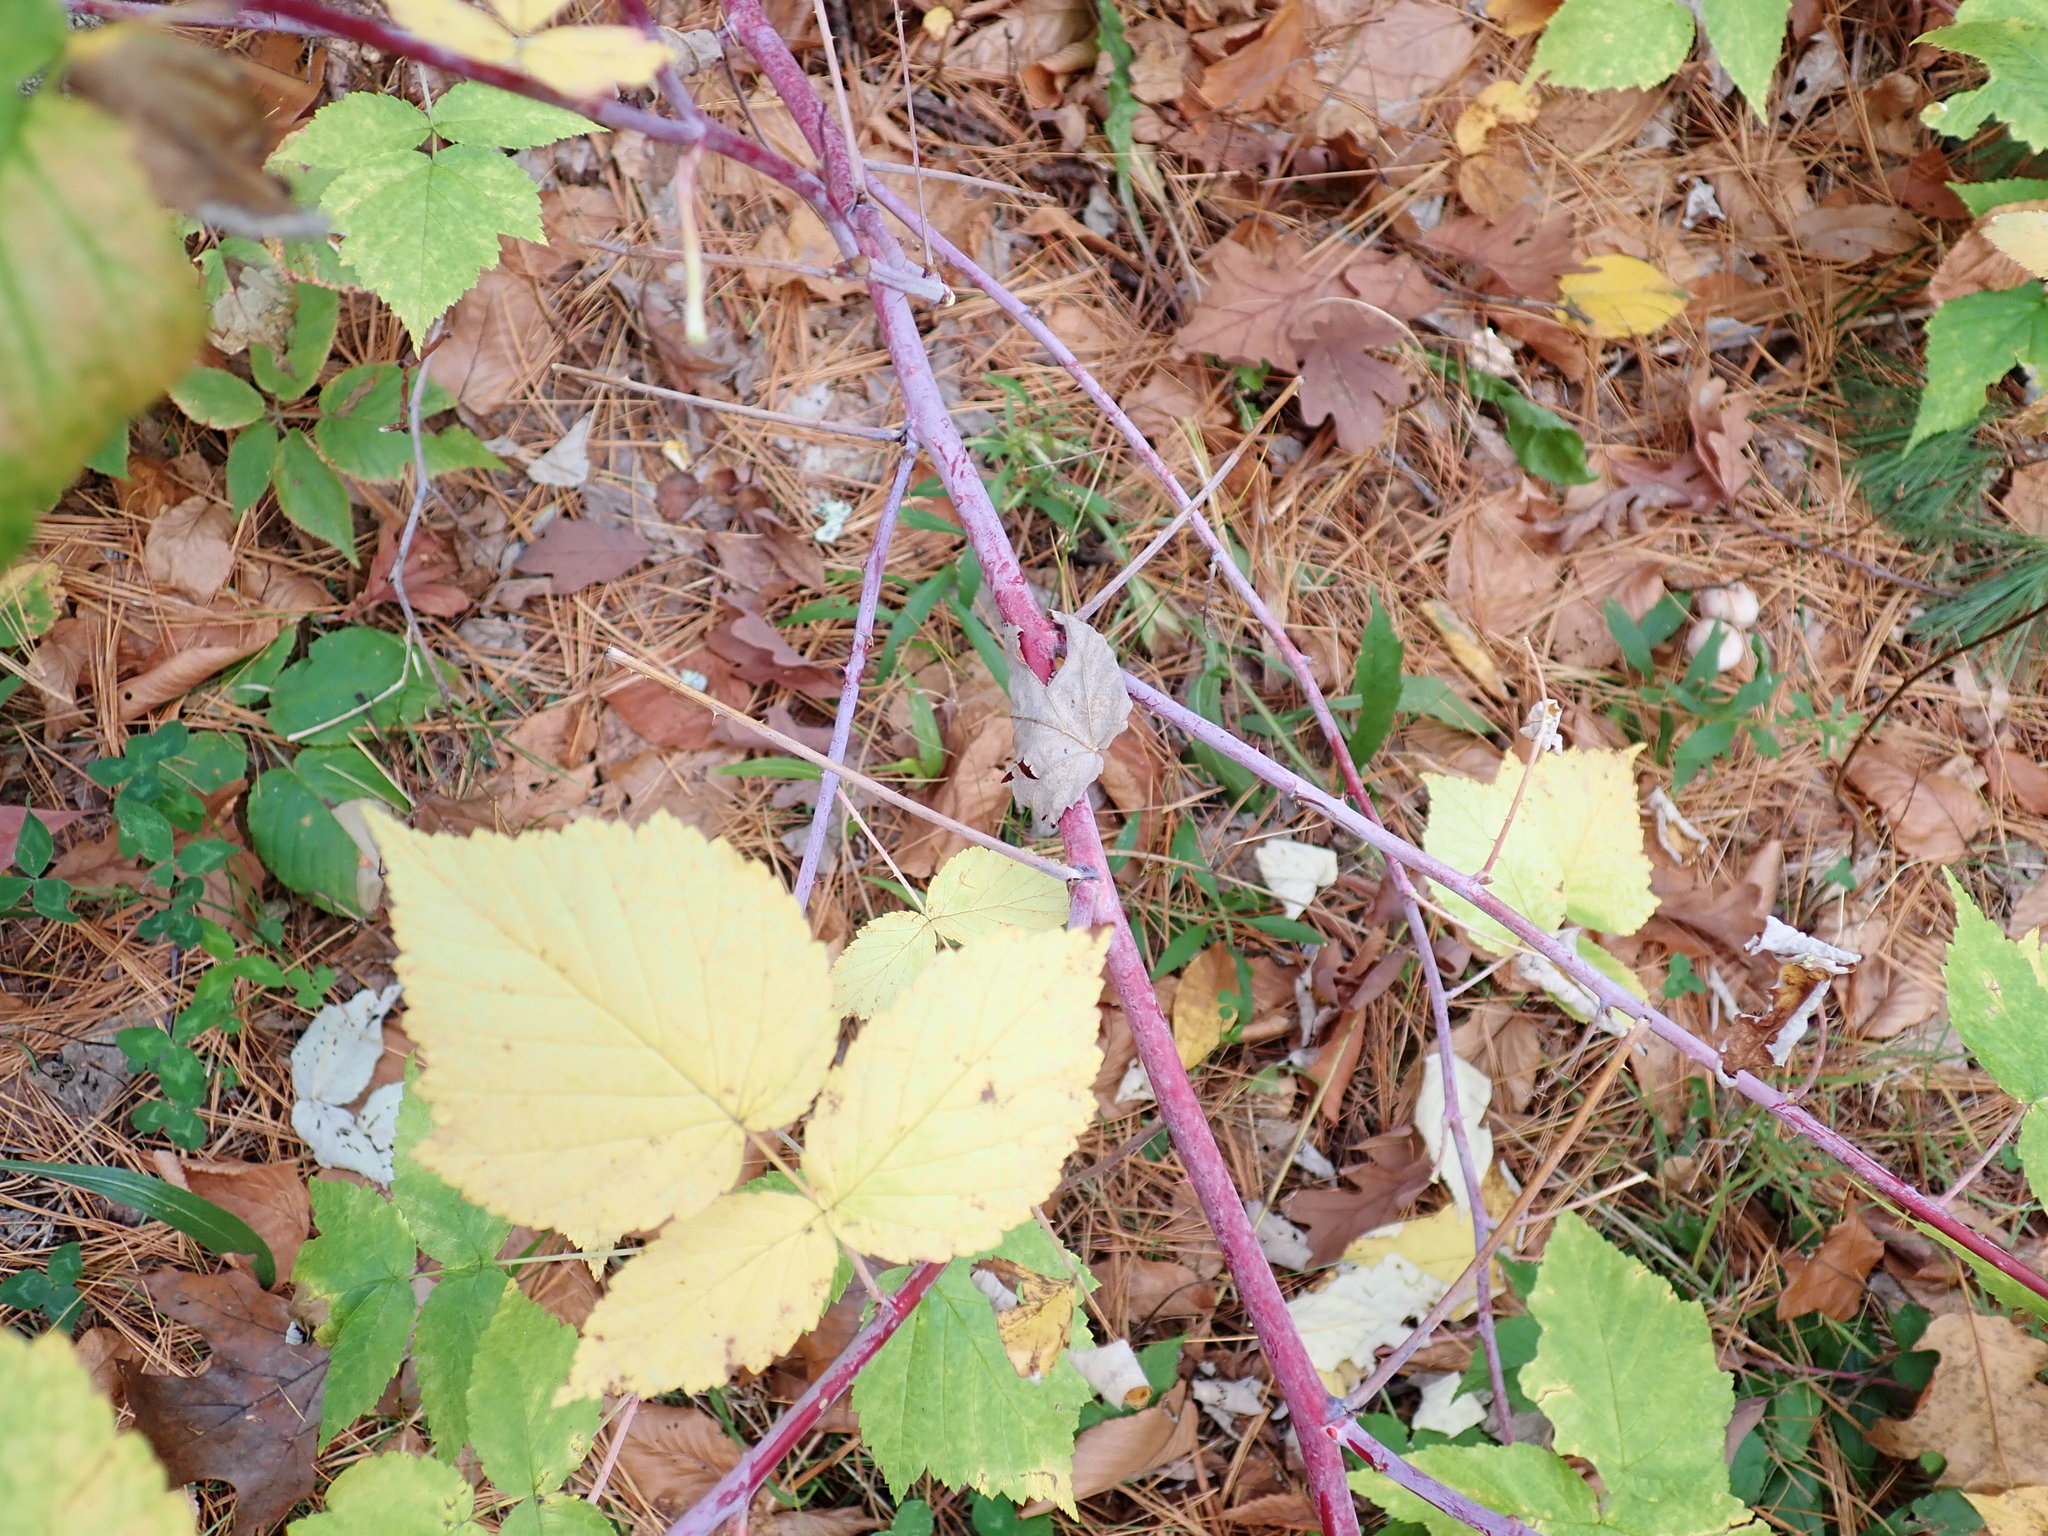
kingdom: Plantae
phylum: Tracheophyta
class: Magnoliopsida
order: Rosales
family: Rosaceae
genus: Rubus
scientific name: Rubus occidentalis
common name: Black raspberry
